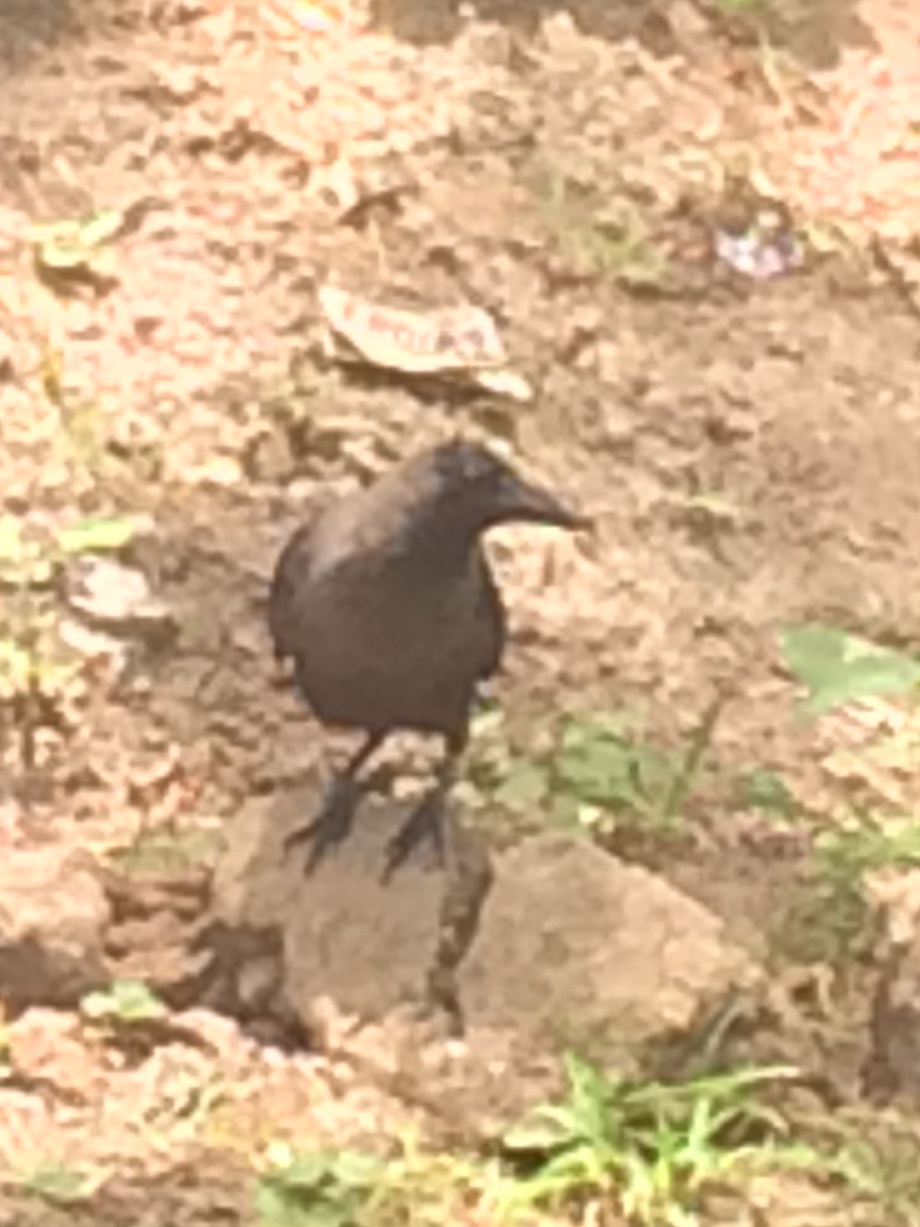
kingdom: Animalia
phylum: Chordata
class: Aves
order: Passeriformes
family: Corvidae
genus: Corvus
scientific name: Corvus splendens
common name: House crow
